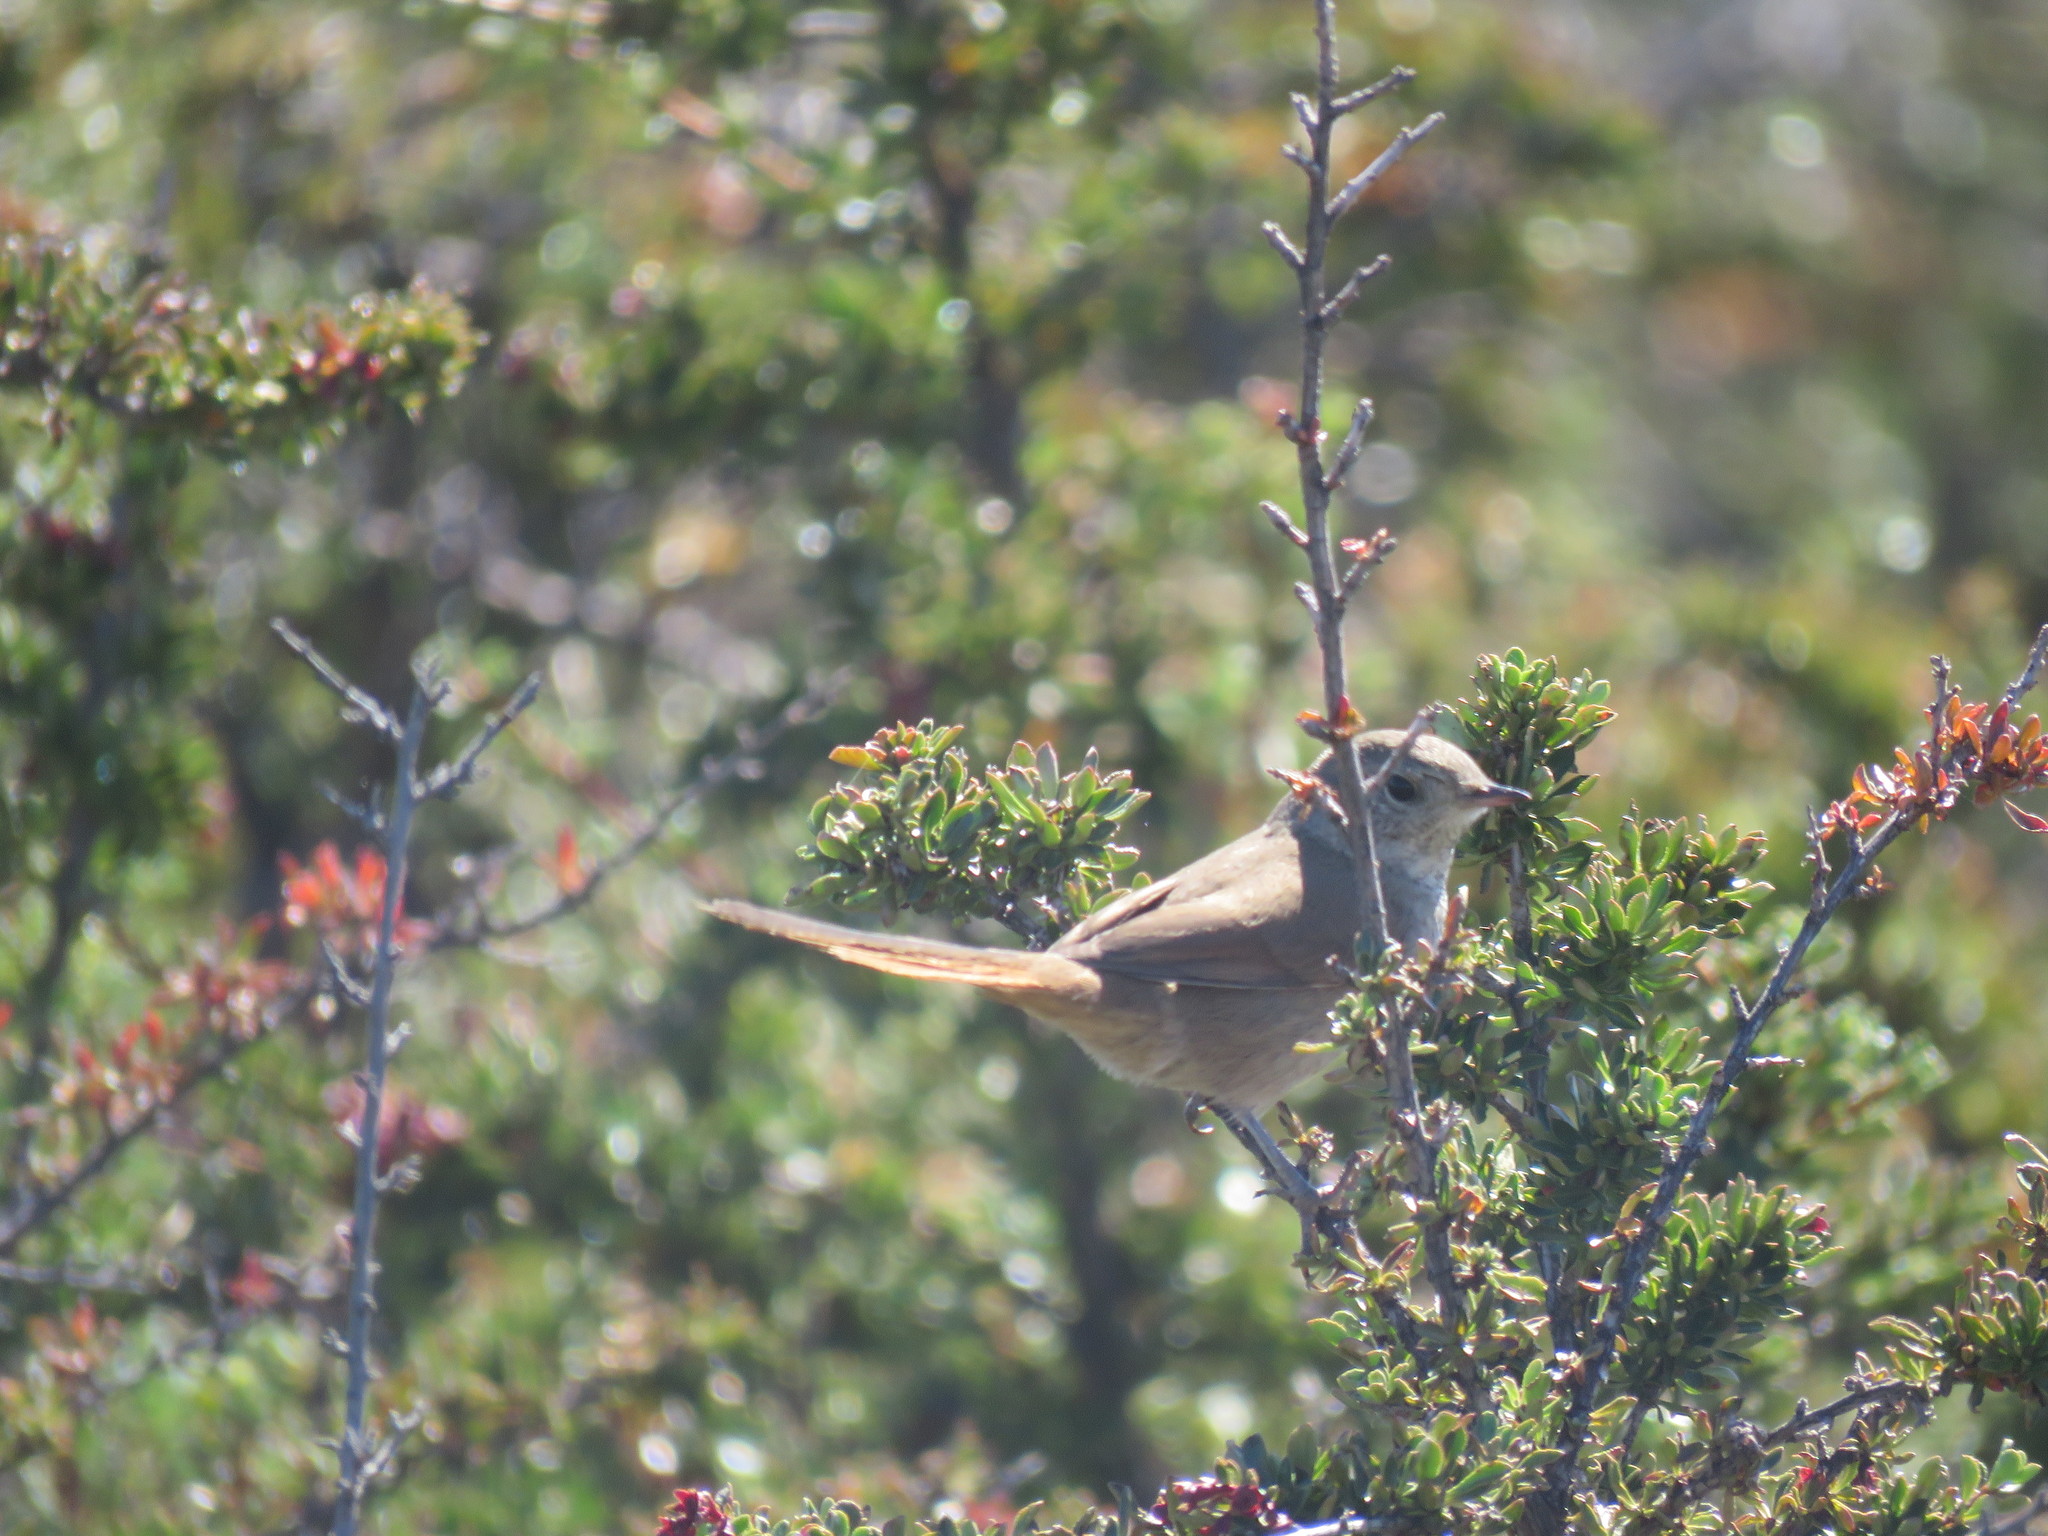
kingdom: Animalia
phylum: Chordata
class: Aves
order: Passeriformes
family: Furnariidae
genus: Asthenes
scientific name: Asthenes pyrrholeuca
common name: Sharp-billed canastero
